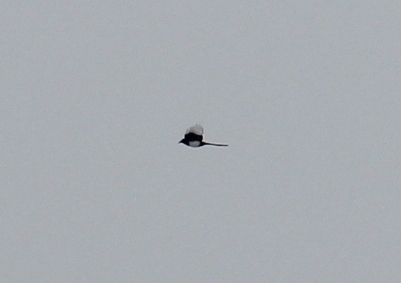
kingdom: Animalia
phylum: Chordata
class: Aves
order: Passeriformes
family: Corvidae
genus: Pica
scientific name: Pica pica
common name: Eurasian magpie
